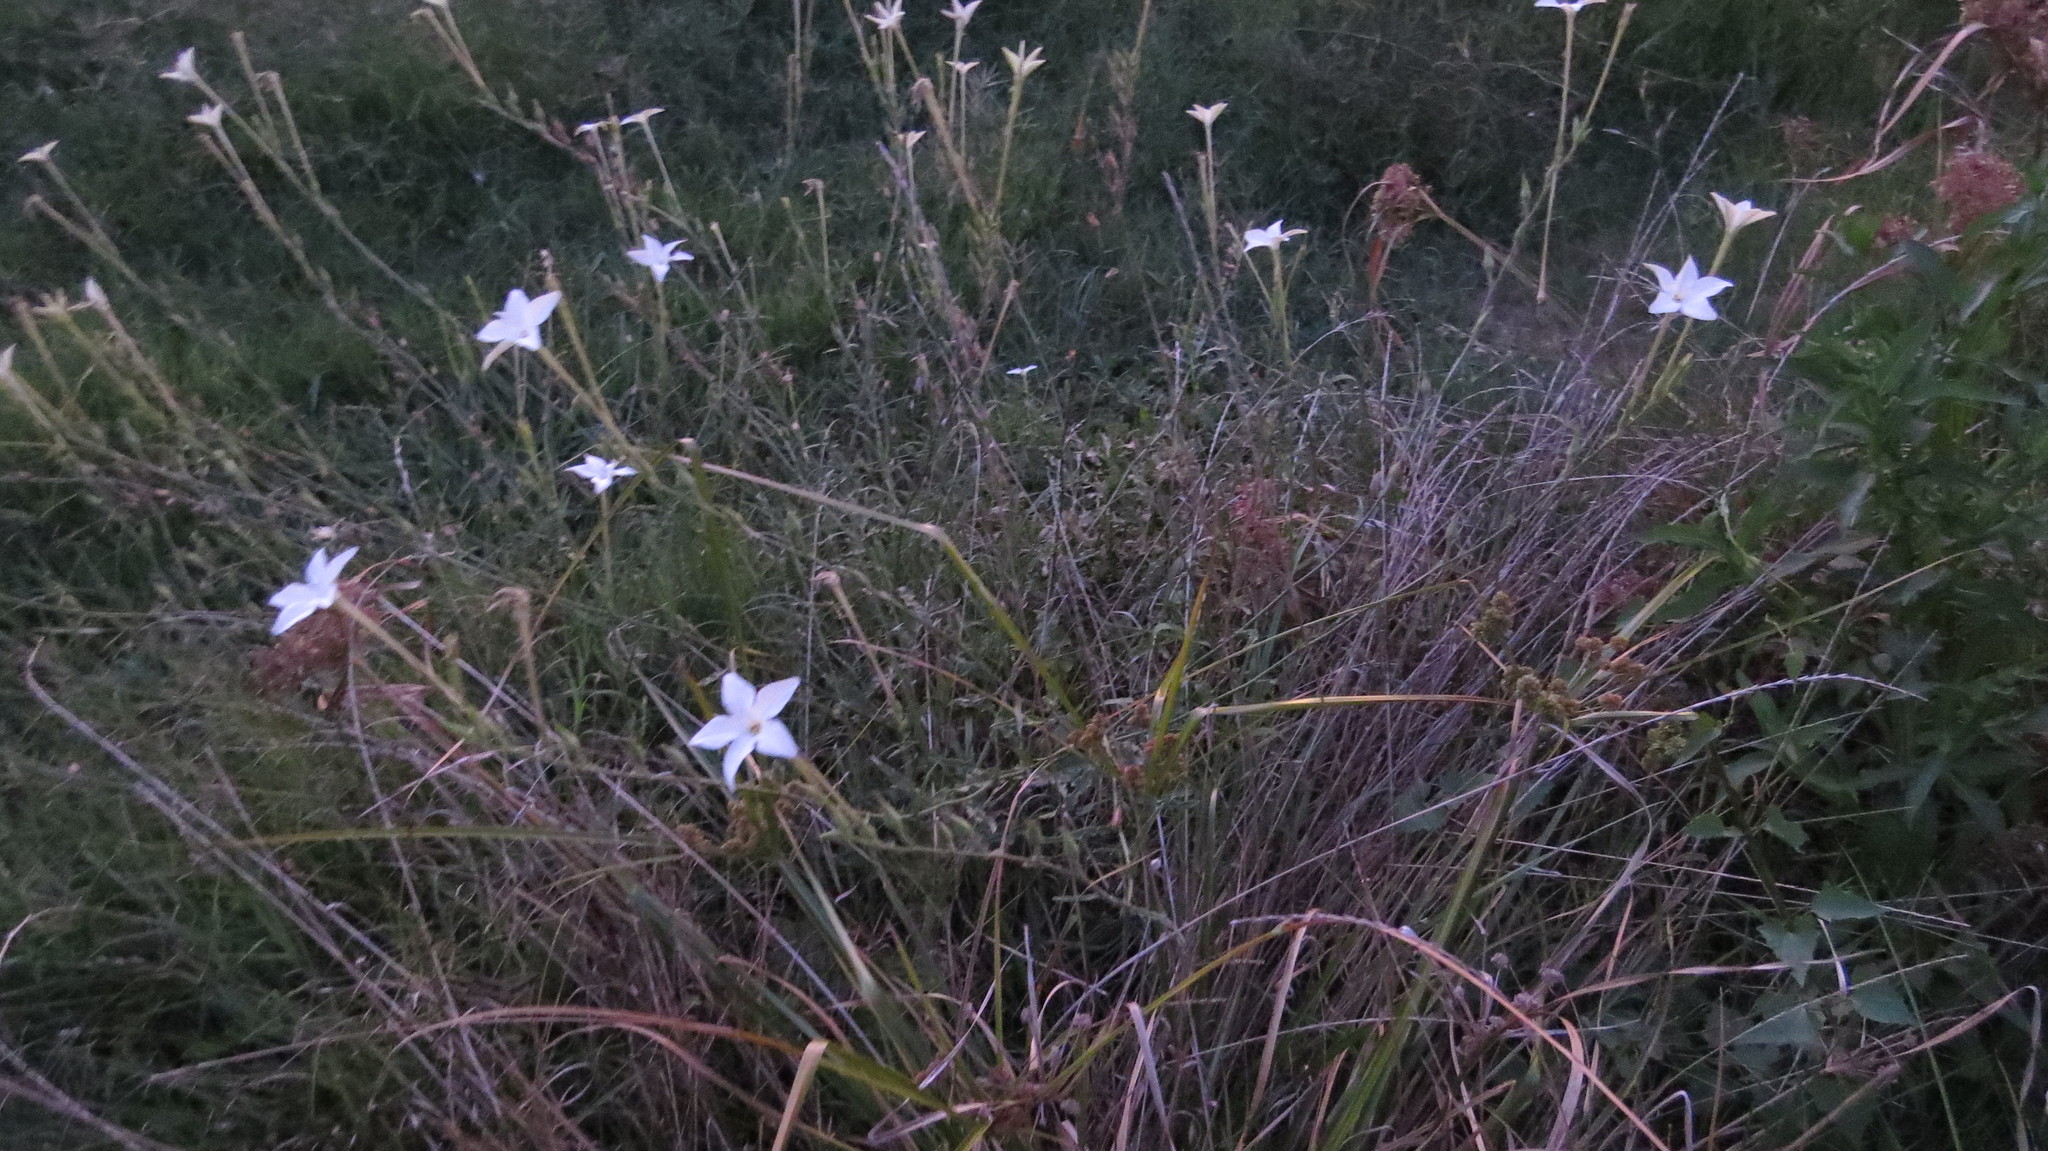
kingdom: Plantae
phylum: Tracheophyta
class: Magnoliopsida
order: Solanales
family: Solanaceae
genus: Nicotiana
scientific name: Nicotiana longiflora
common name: Long-flowered tobacco
